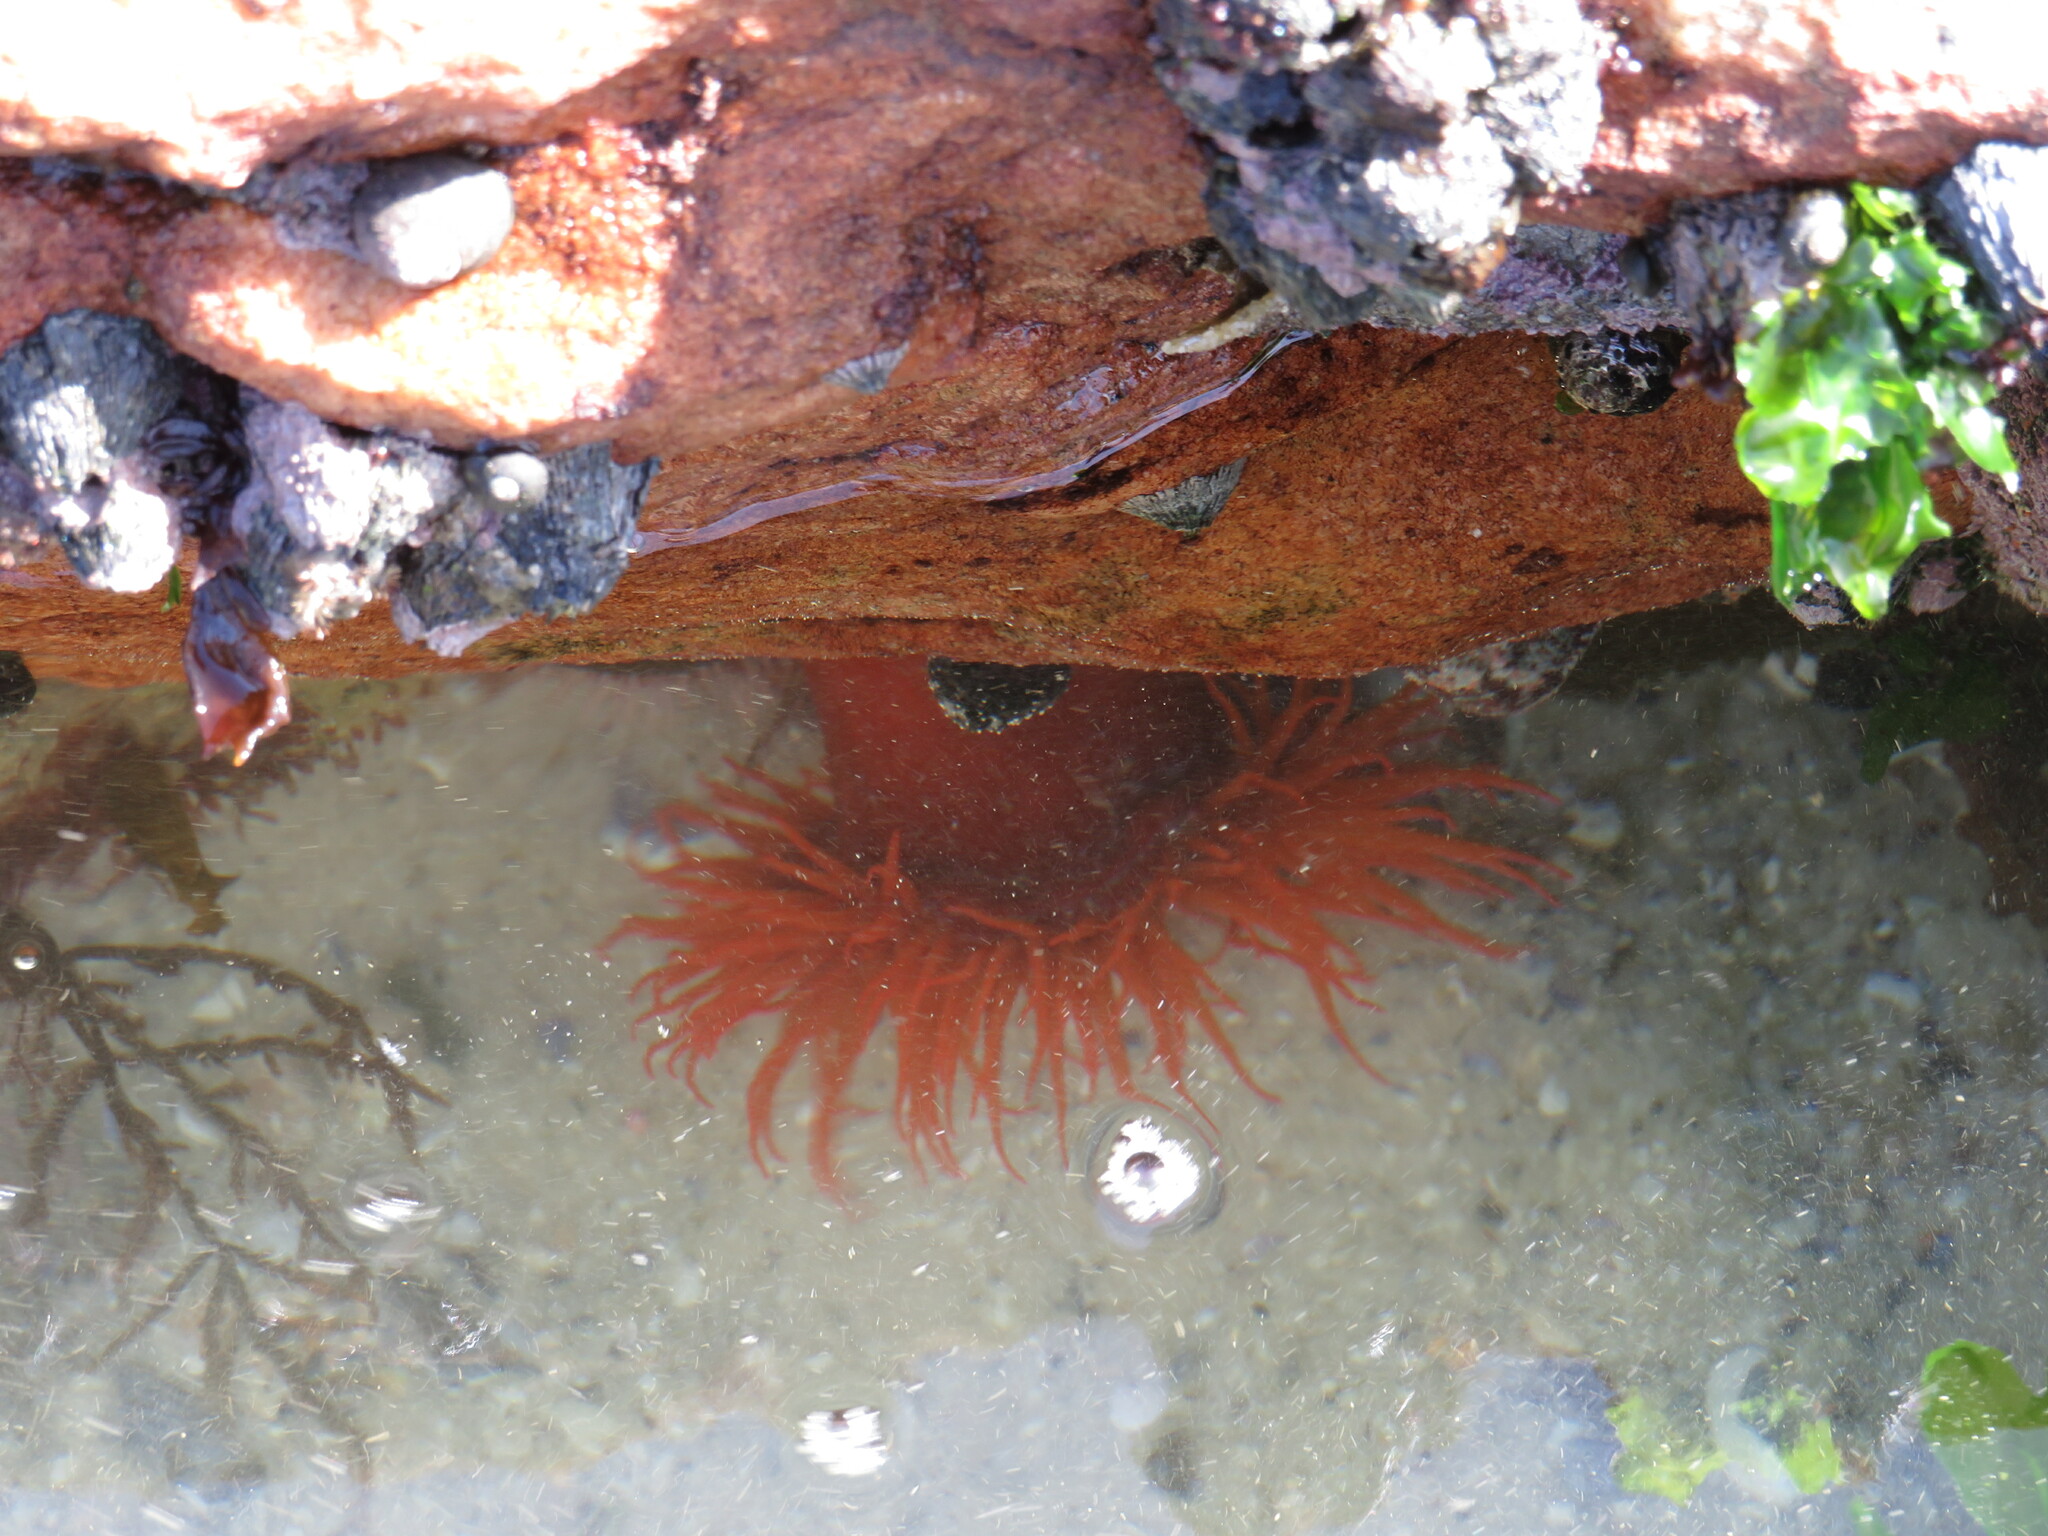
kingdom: Animalia
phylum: Cnidaria
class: Anthozoa
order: Actiniaria
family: Actiniidae
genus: Pseudactinia
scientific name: Pseudactinia flagellifera
